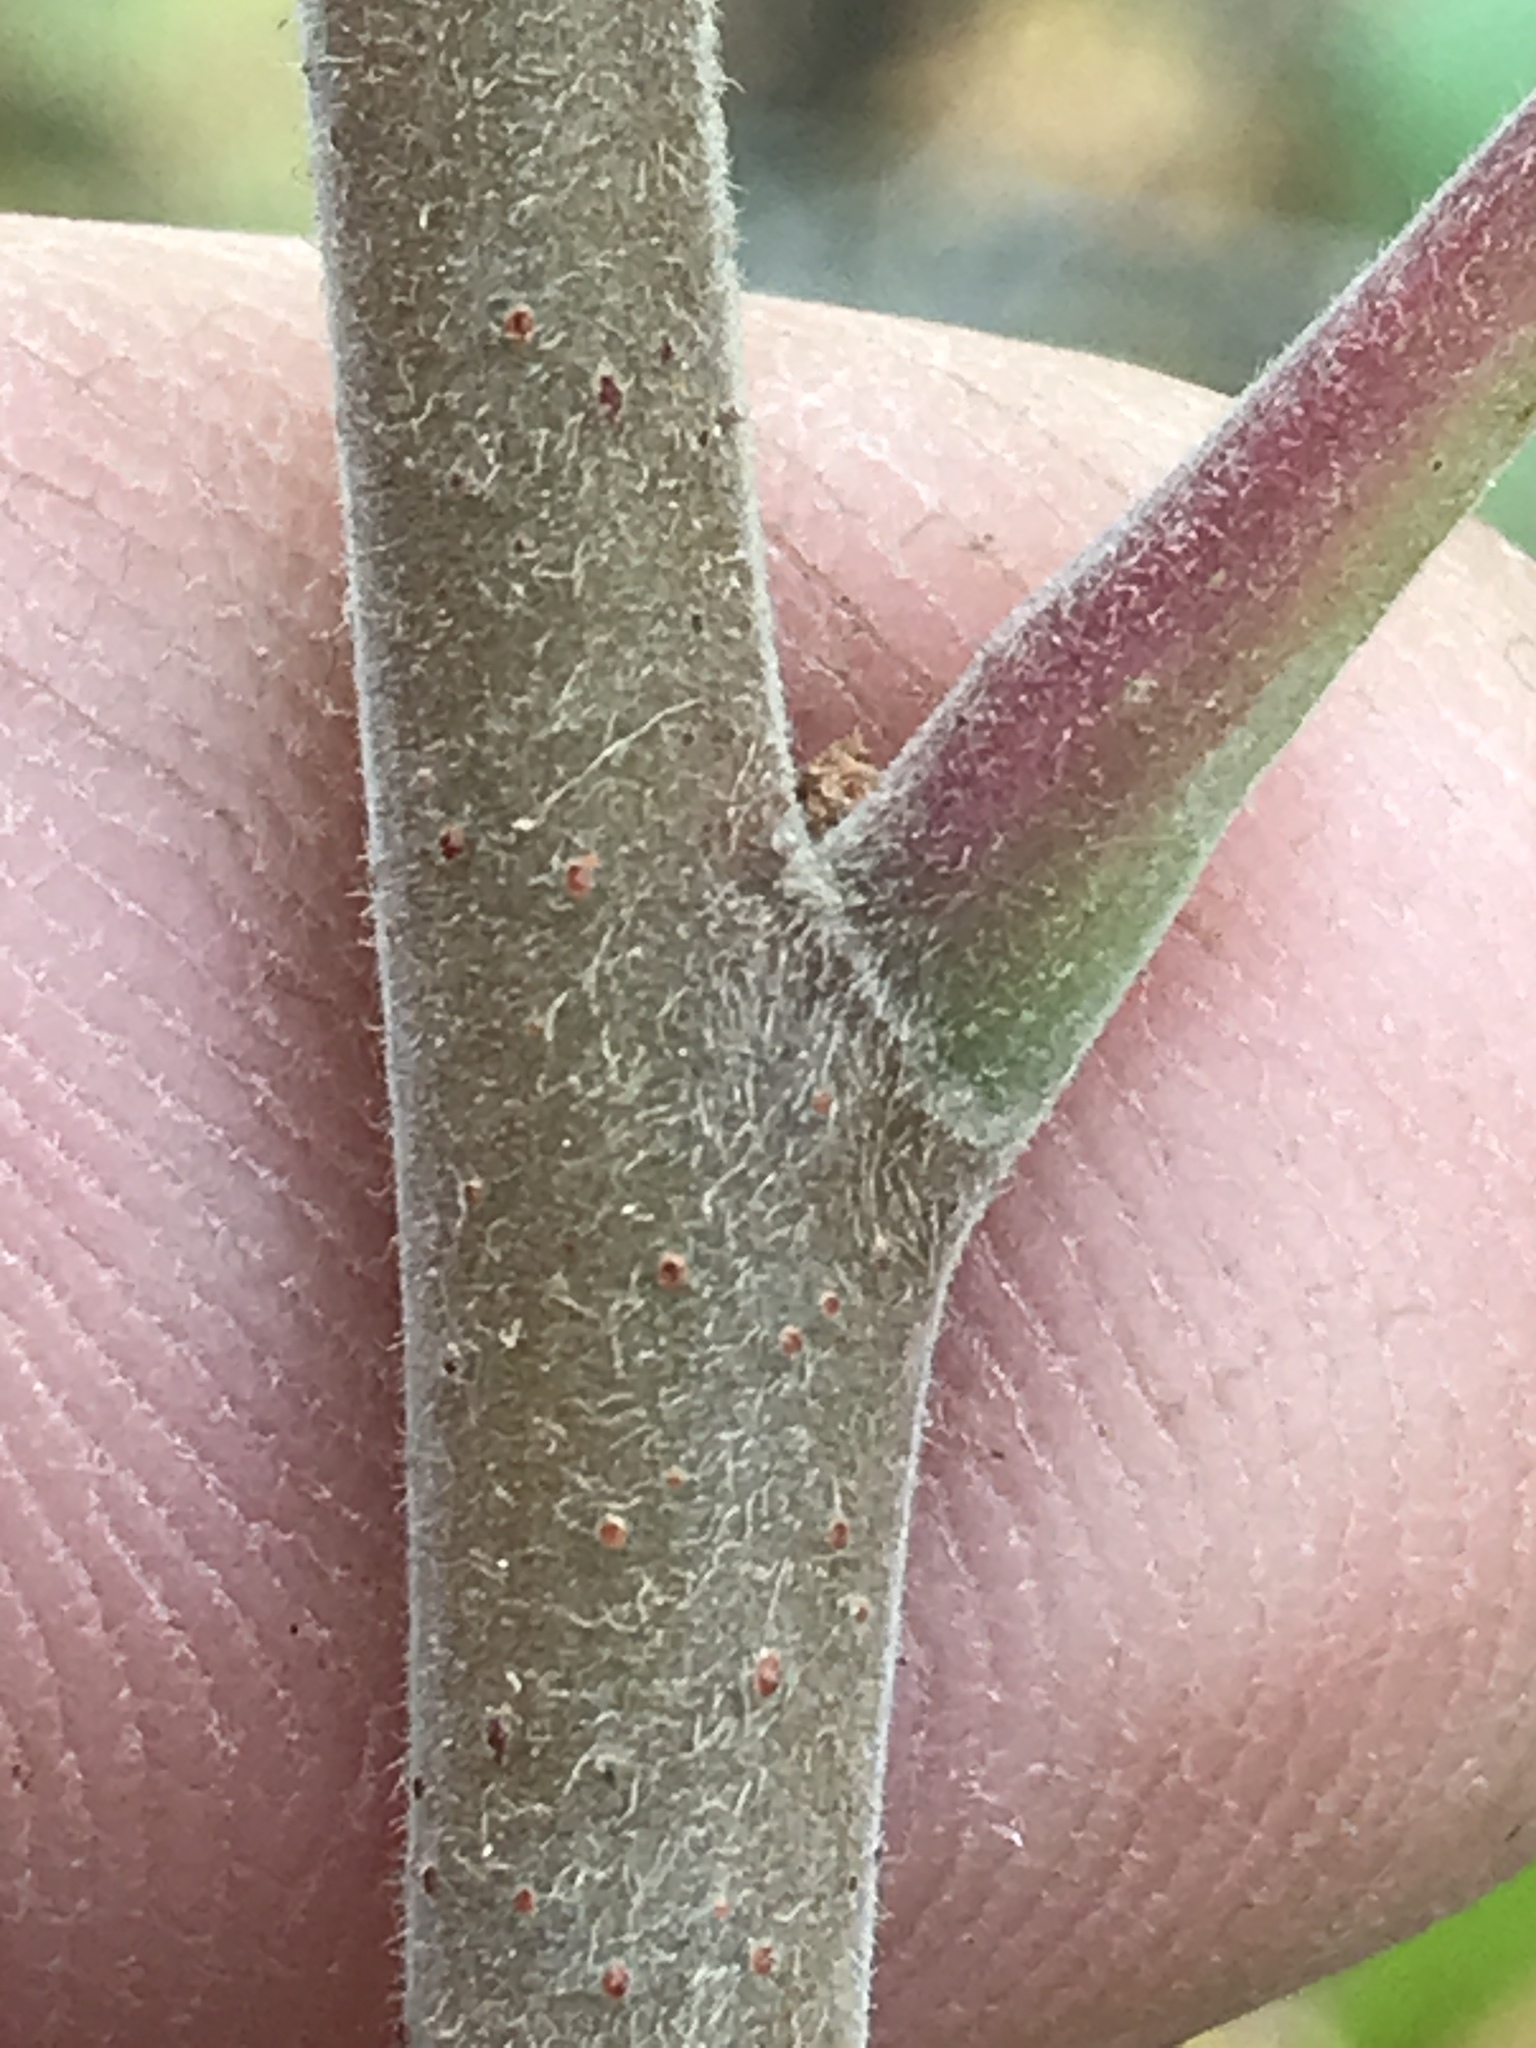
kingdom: Plantae
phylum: Tracheophyta
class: Magnoliopsida
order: Sapindales
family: Anacardiaceae
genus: Rhus
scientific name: Rhus lanceolata
